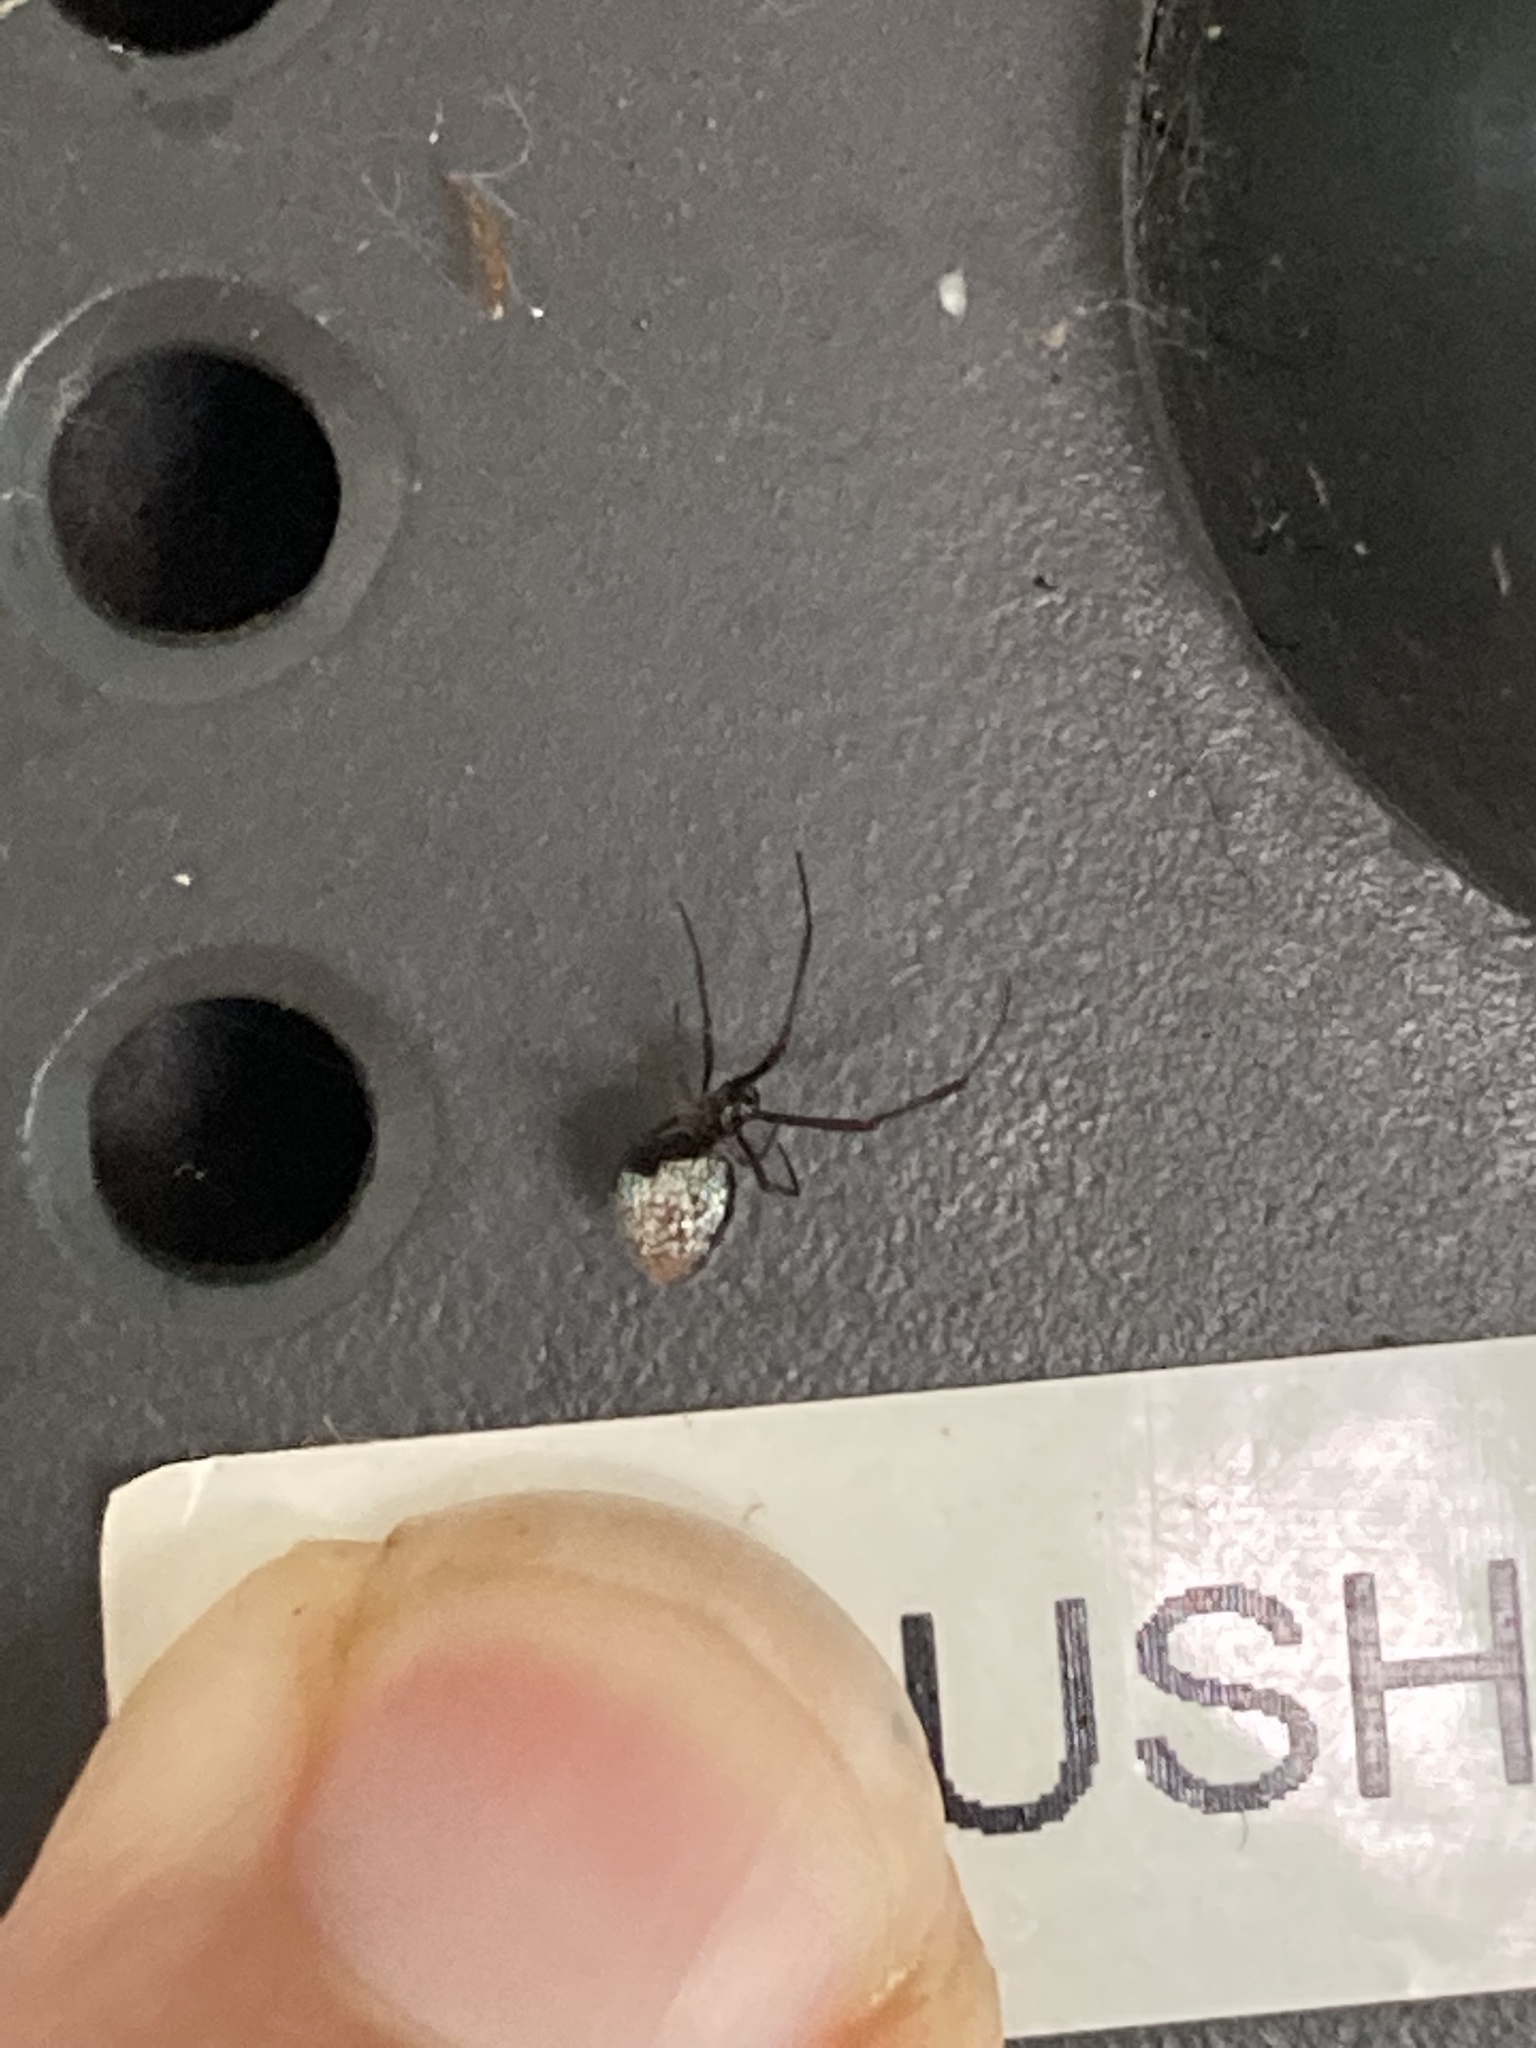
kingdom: Animalia
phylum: Arthropoda
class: Arachnida
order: Araneae
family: Theridiidae
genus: Argyrodes
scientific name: Argyrodes antipodianus
